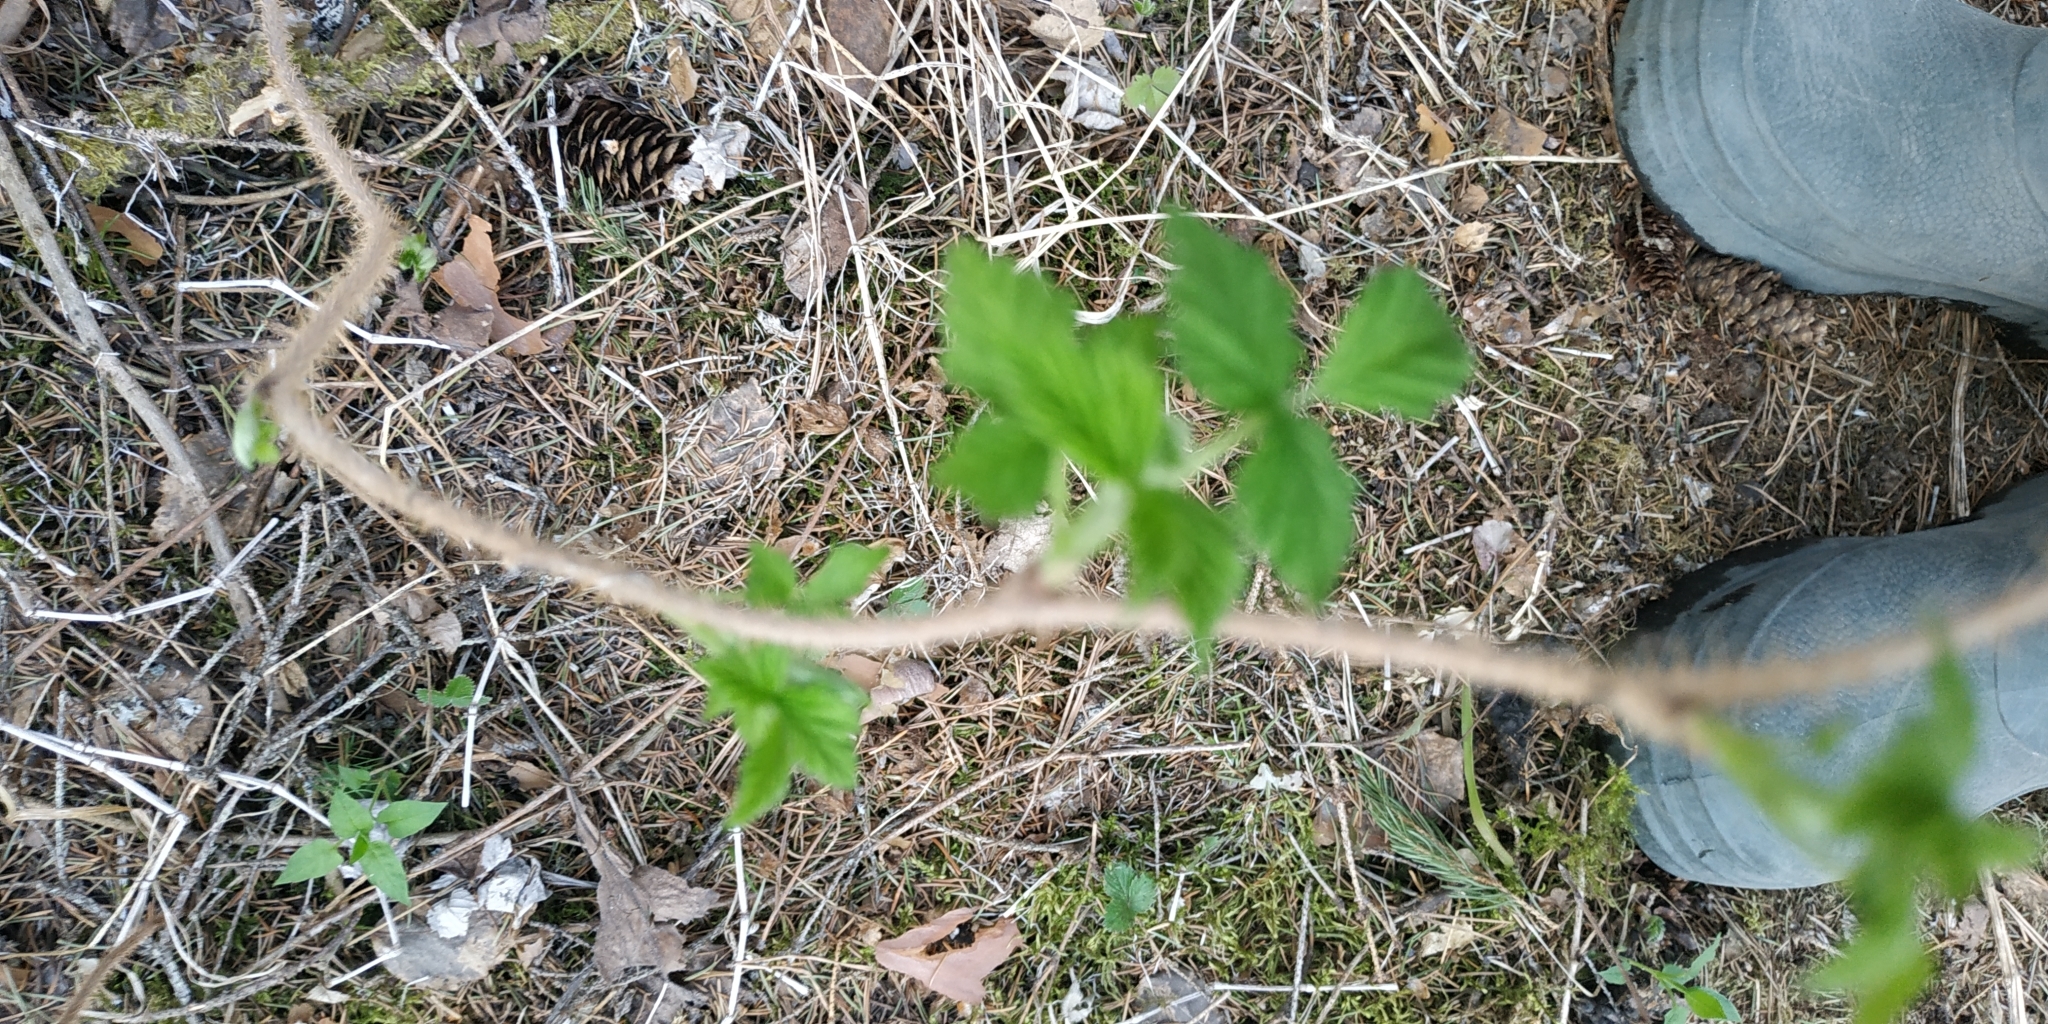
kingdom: Plantae
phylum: Tracheophyta
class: Magnoliopsida
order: Rosales
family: Rosaceae
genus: Rubus
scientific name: Rubus idaeus
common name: Raspberry
